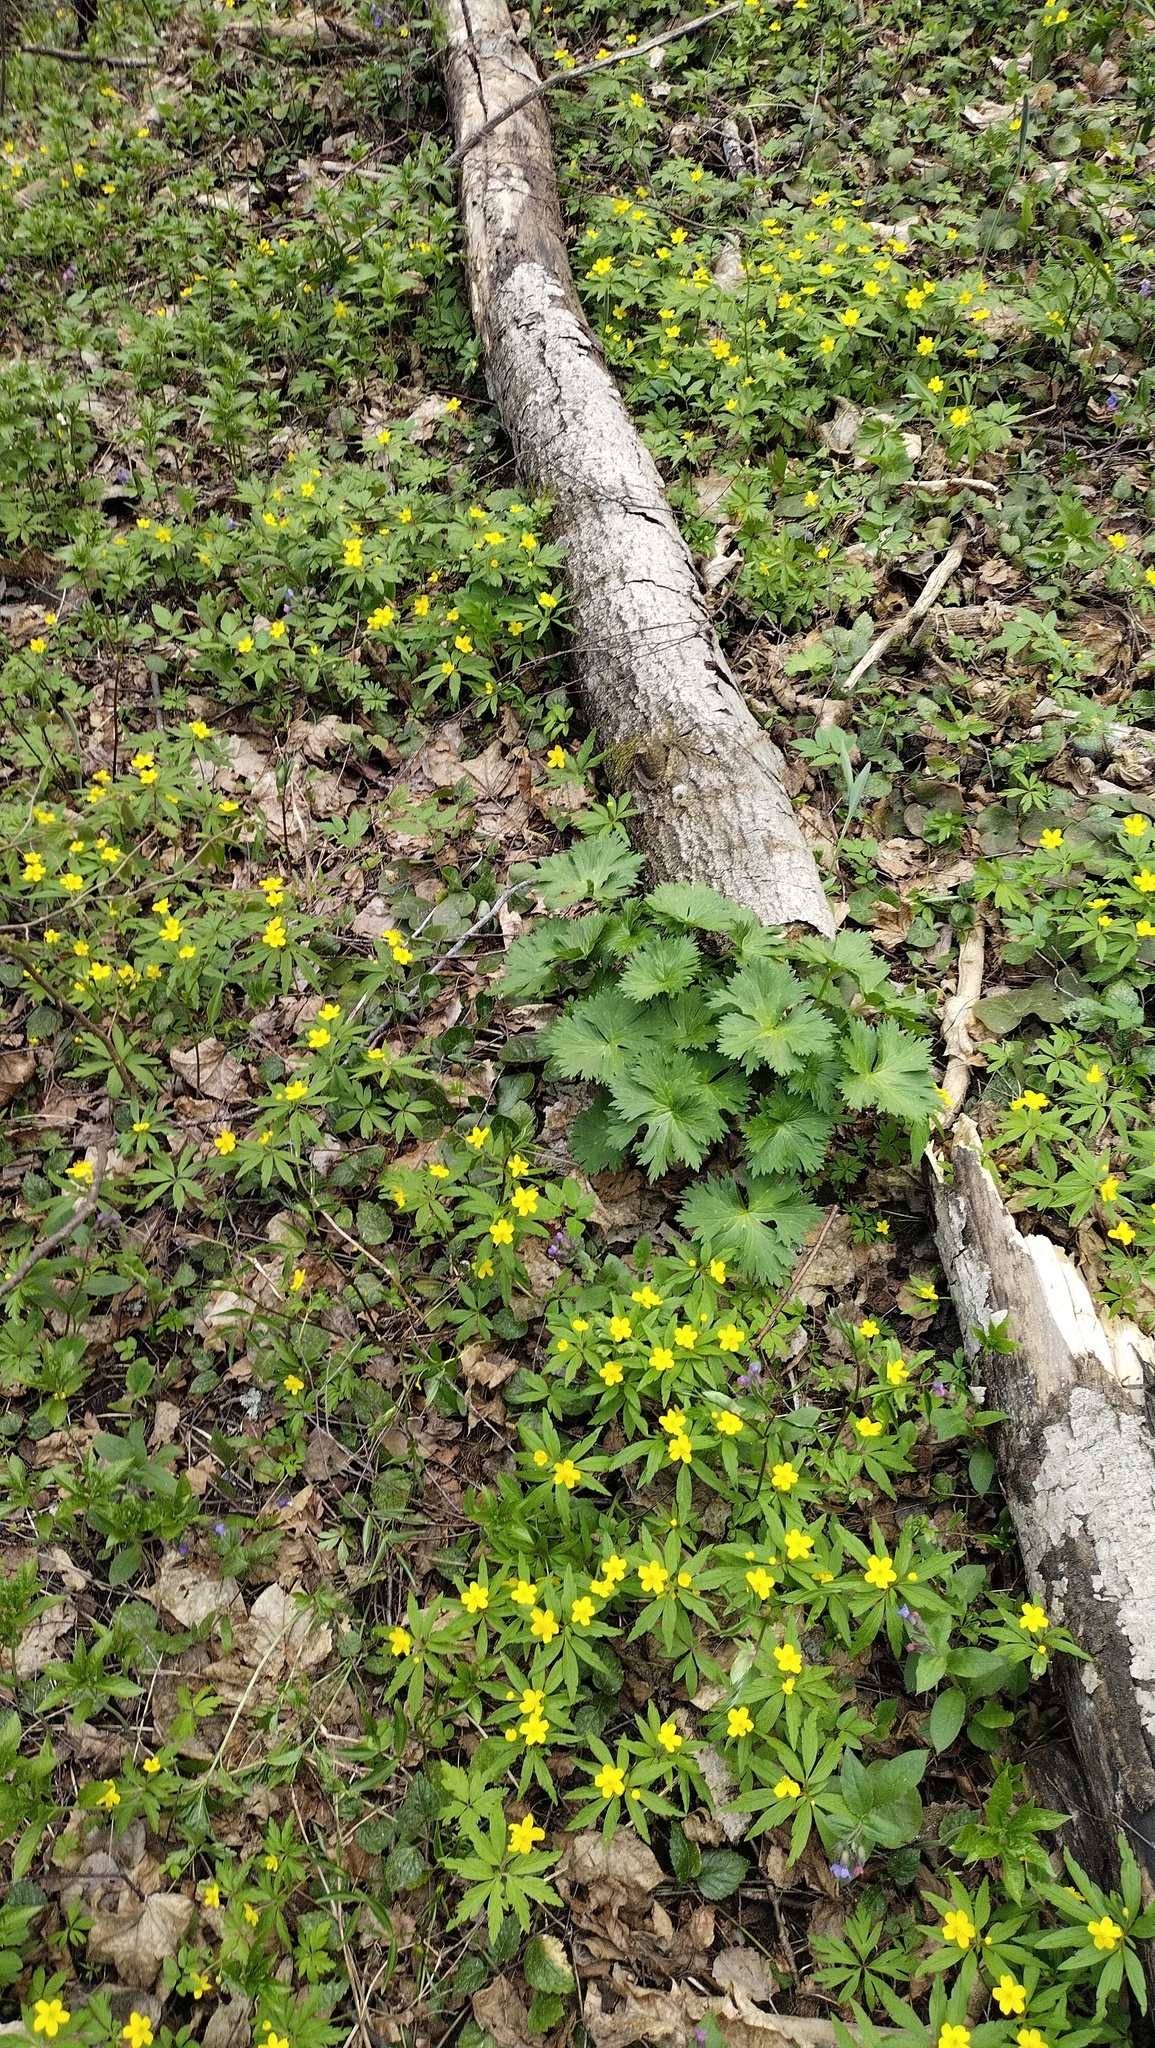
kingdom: Plantae
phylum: Tracheophyta
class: Magnoliopsida
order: Ranunculales
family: Ranunculaceae
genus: Anemone
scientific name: Anemone ranunculoides
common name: Yellow anemone
